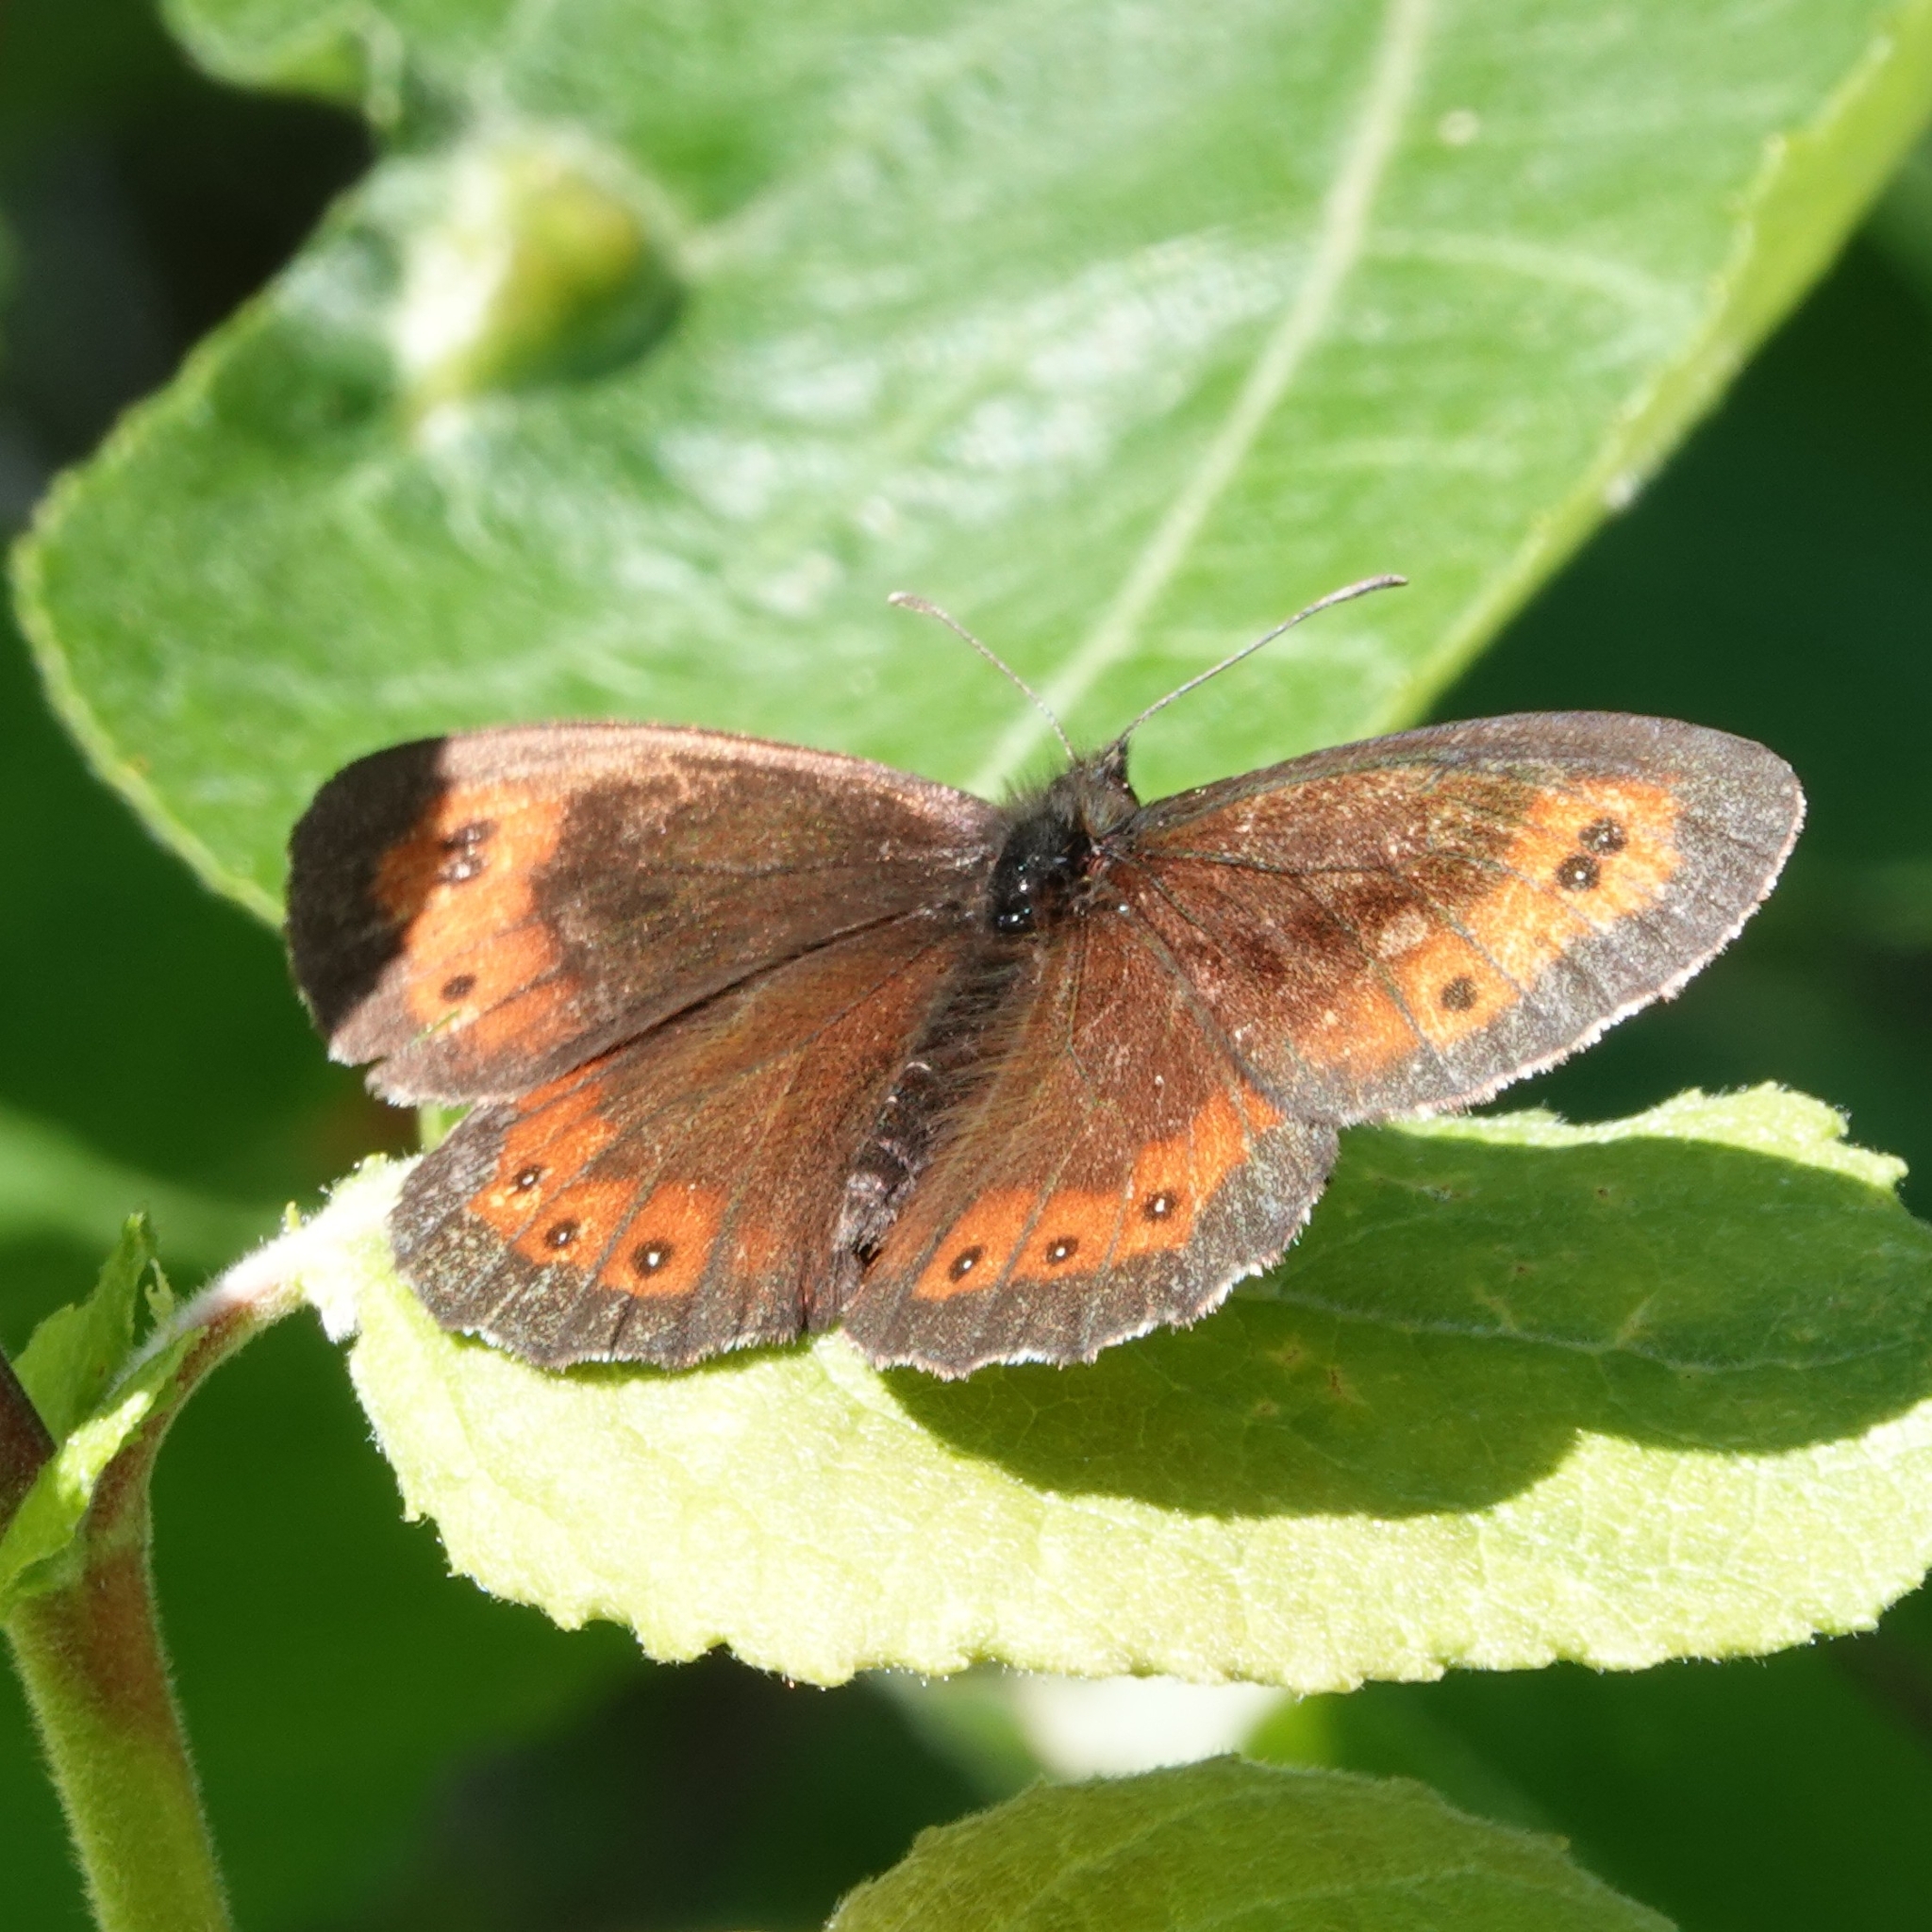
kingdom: Animalia
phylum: Arthropoda
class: Insecta
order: Lepidoptera
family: Nymphalidae
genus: Erebia
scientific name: Erebia ligea
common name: Arran brown
